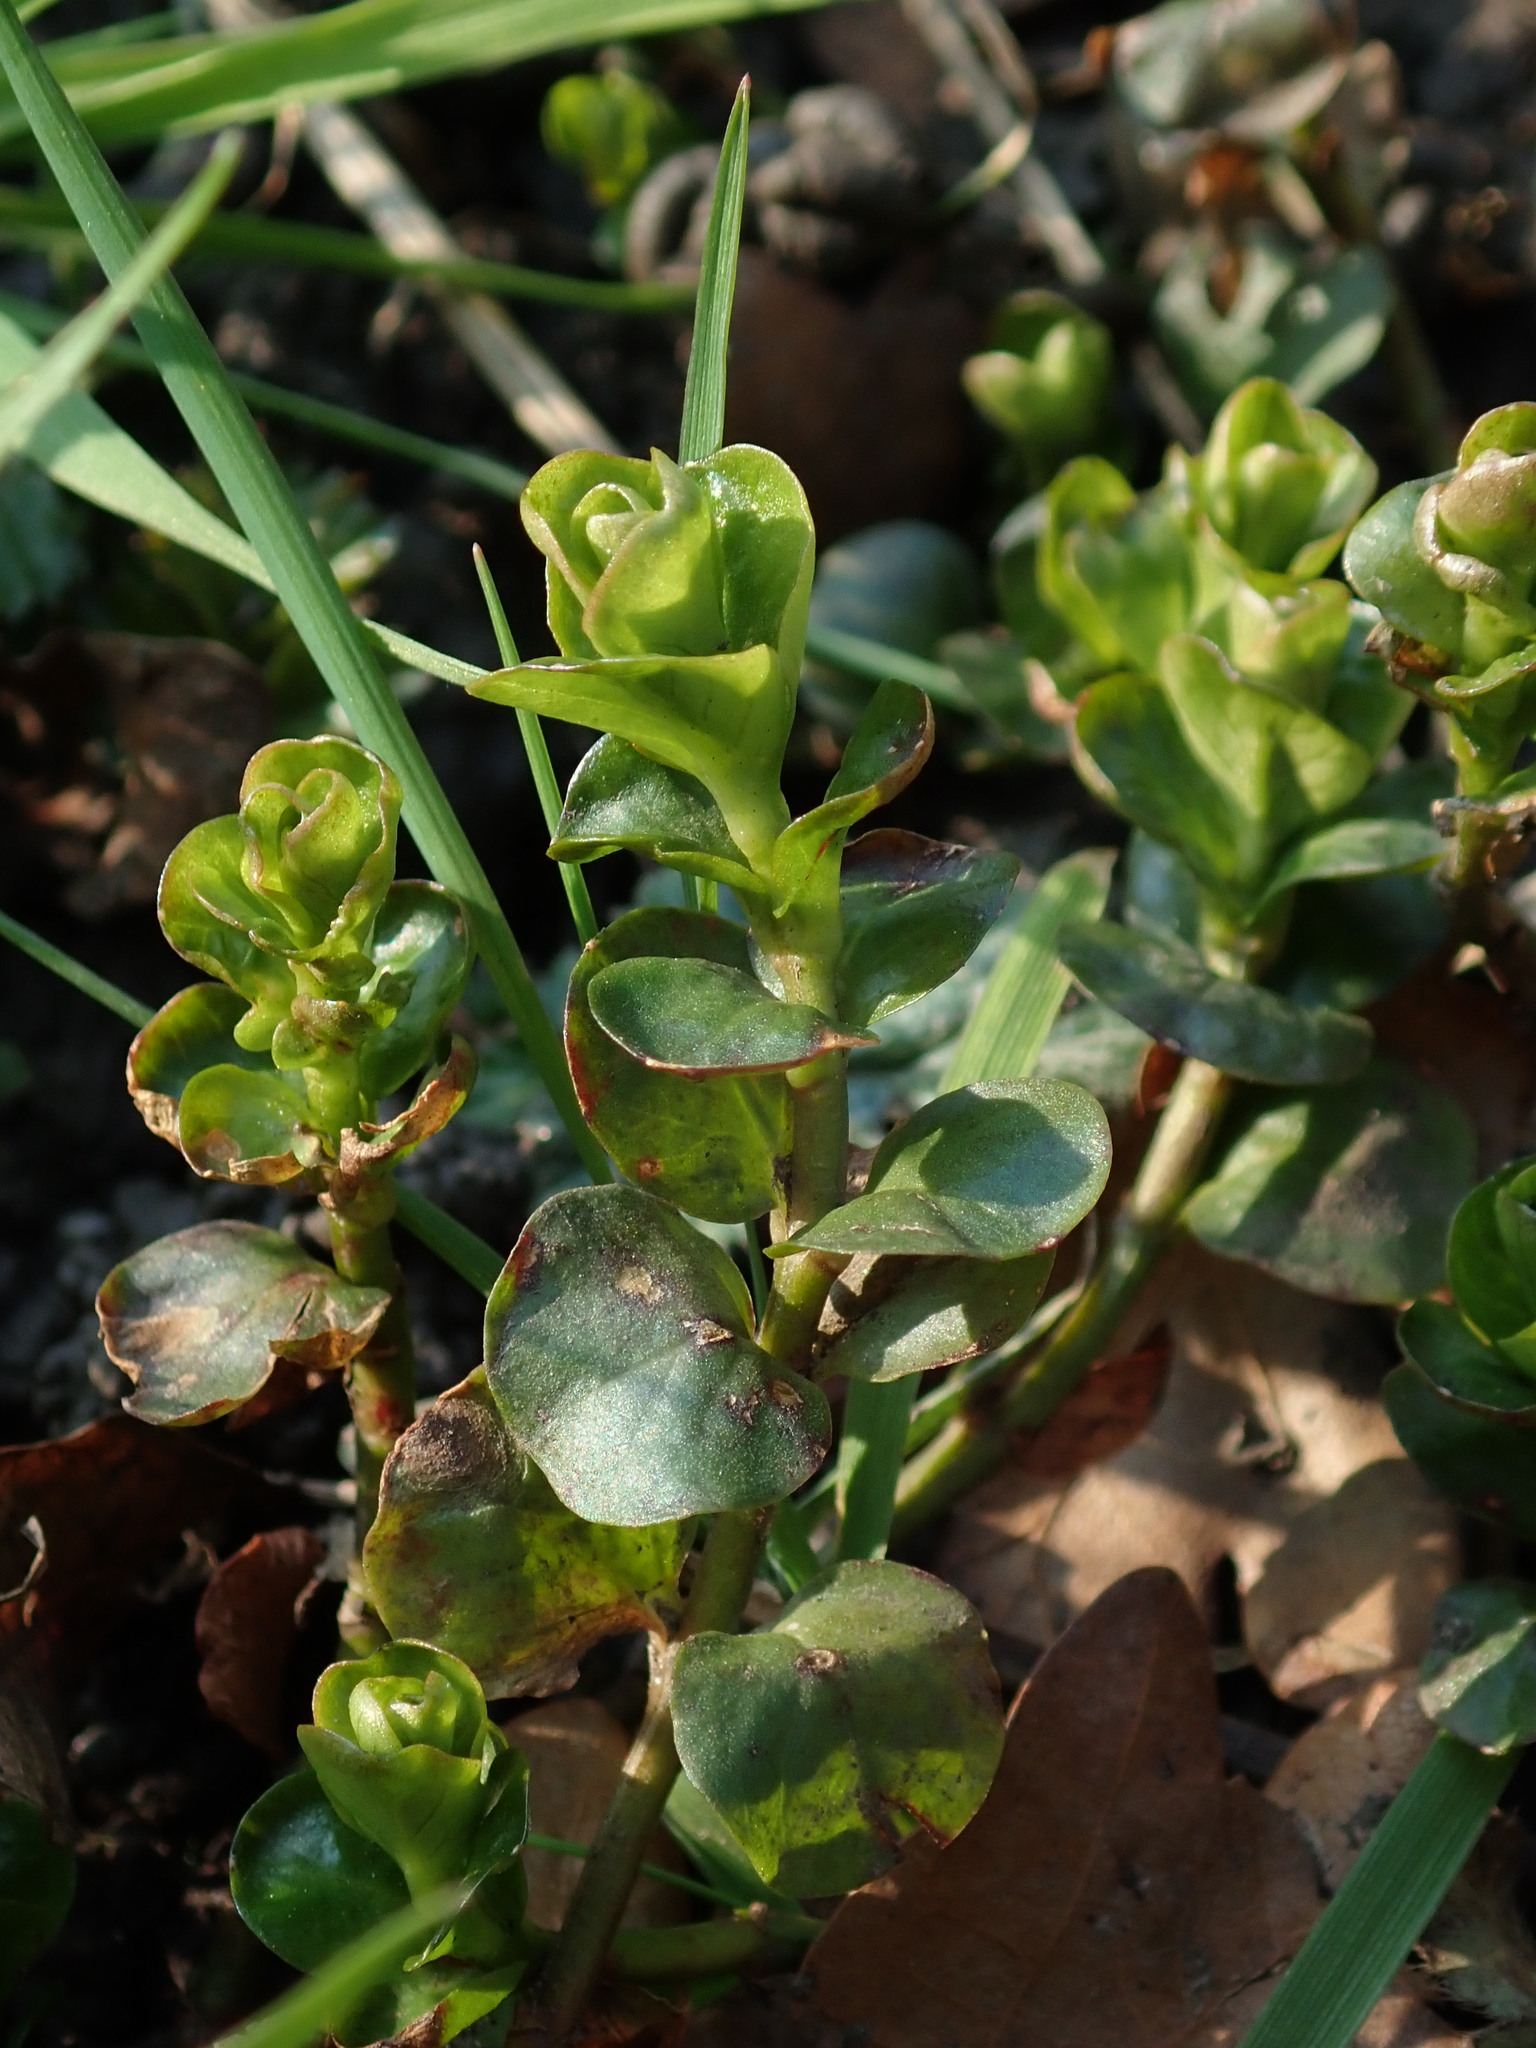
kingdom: Plantae
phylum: Tracheophyta
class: Magnoliopsida
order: Ericales
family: Primulaceae
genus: Lysimachia
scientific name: Lysimachia nummularia
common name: Moneywort
